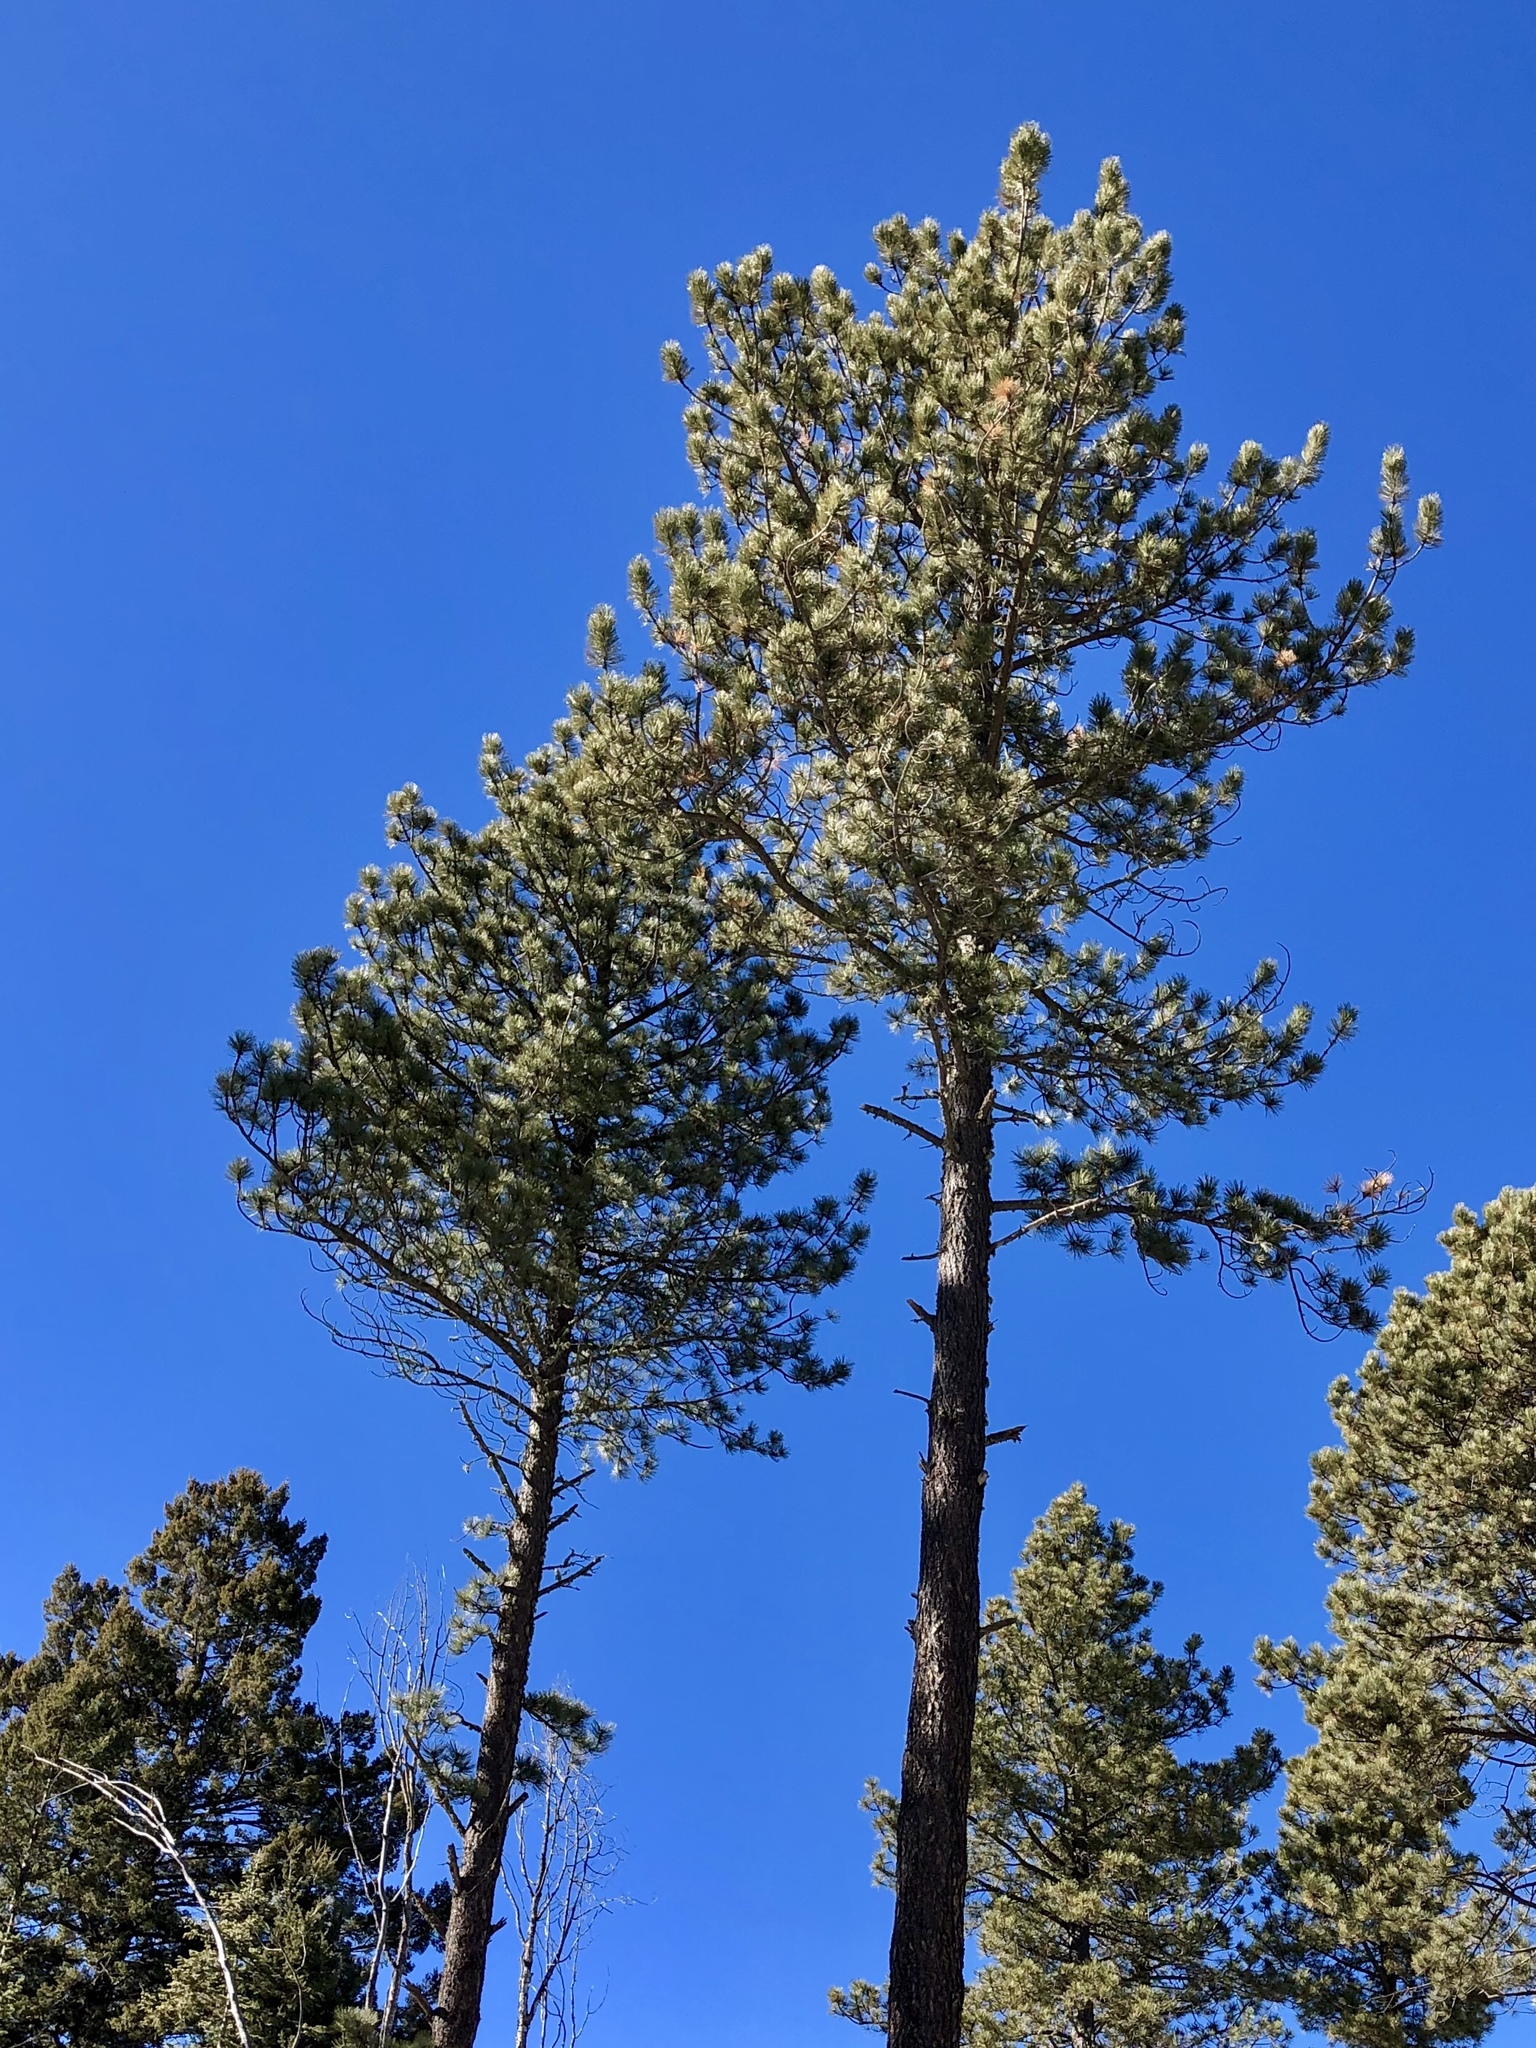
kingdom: Plantae
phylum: Tracheophyta
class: Pinopsida
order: Pinales
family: Pinaceae
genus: Pinus
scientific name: Pinus ponderosa
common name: Western yellow-pine
